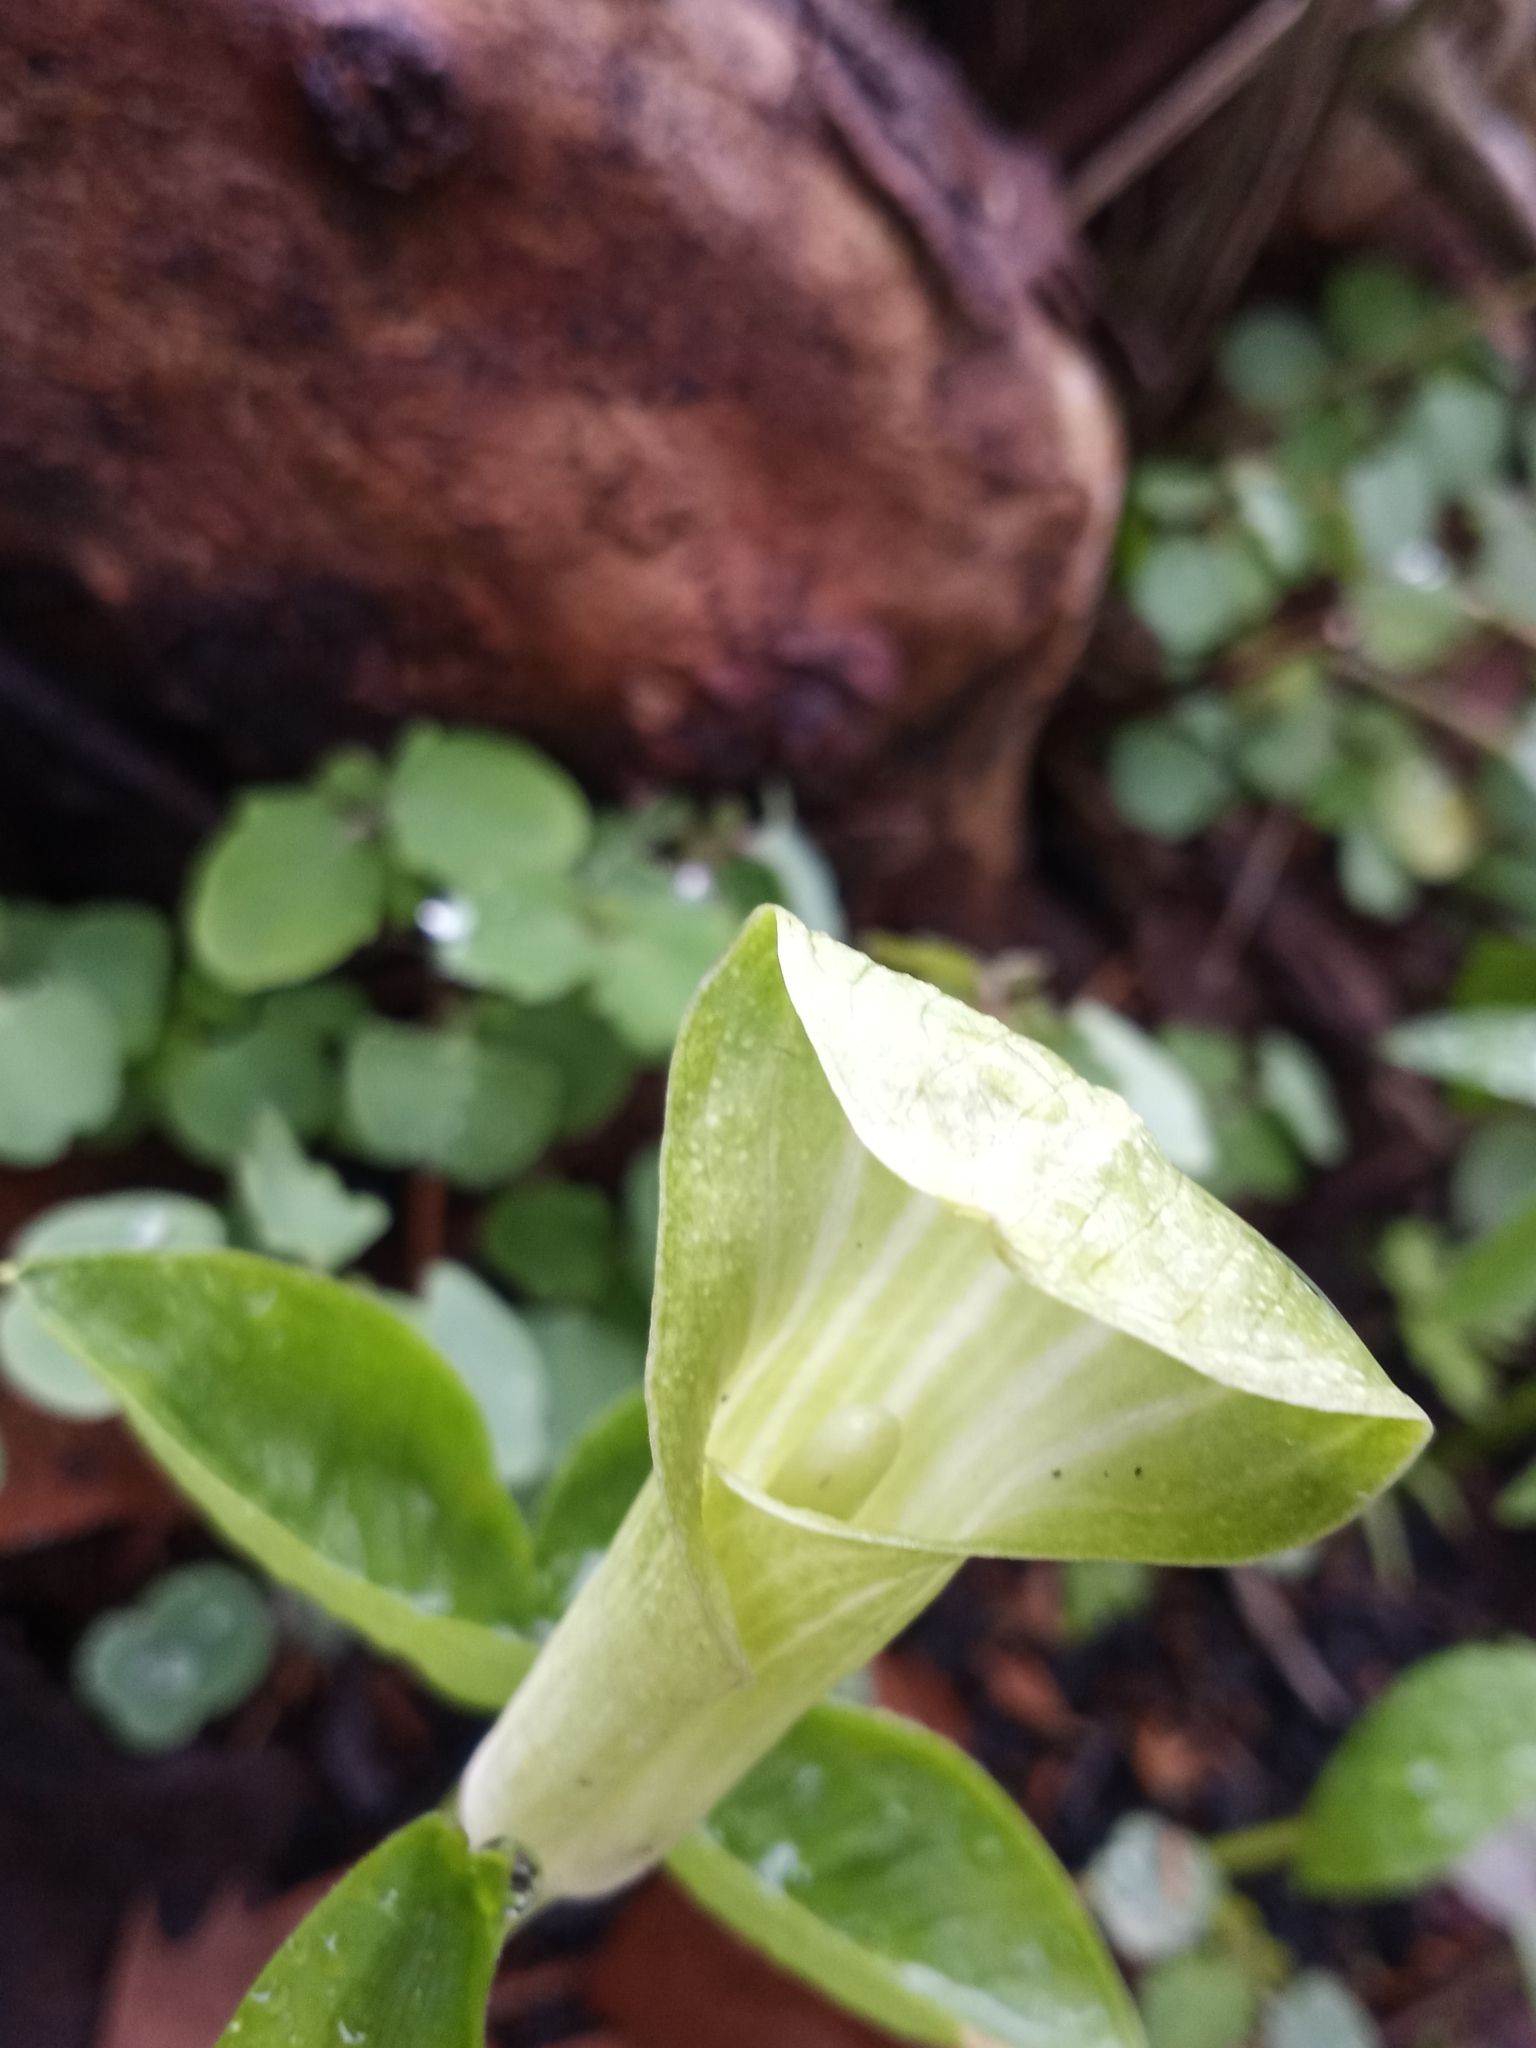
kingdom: Plantae
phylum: Tracheophyta
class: Liliopsida
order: Alismatales
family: Araceae
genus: Arisaema
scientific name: Arisaema triphyllum
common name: Jack-in-the-pulpit
